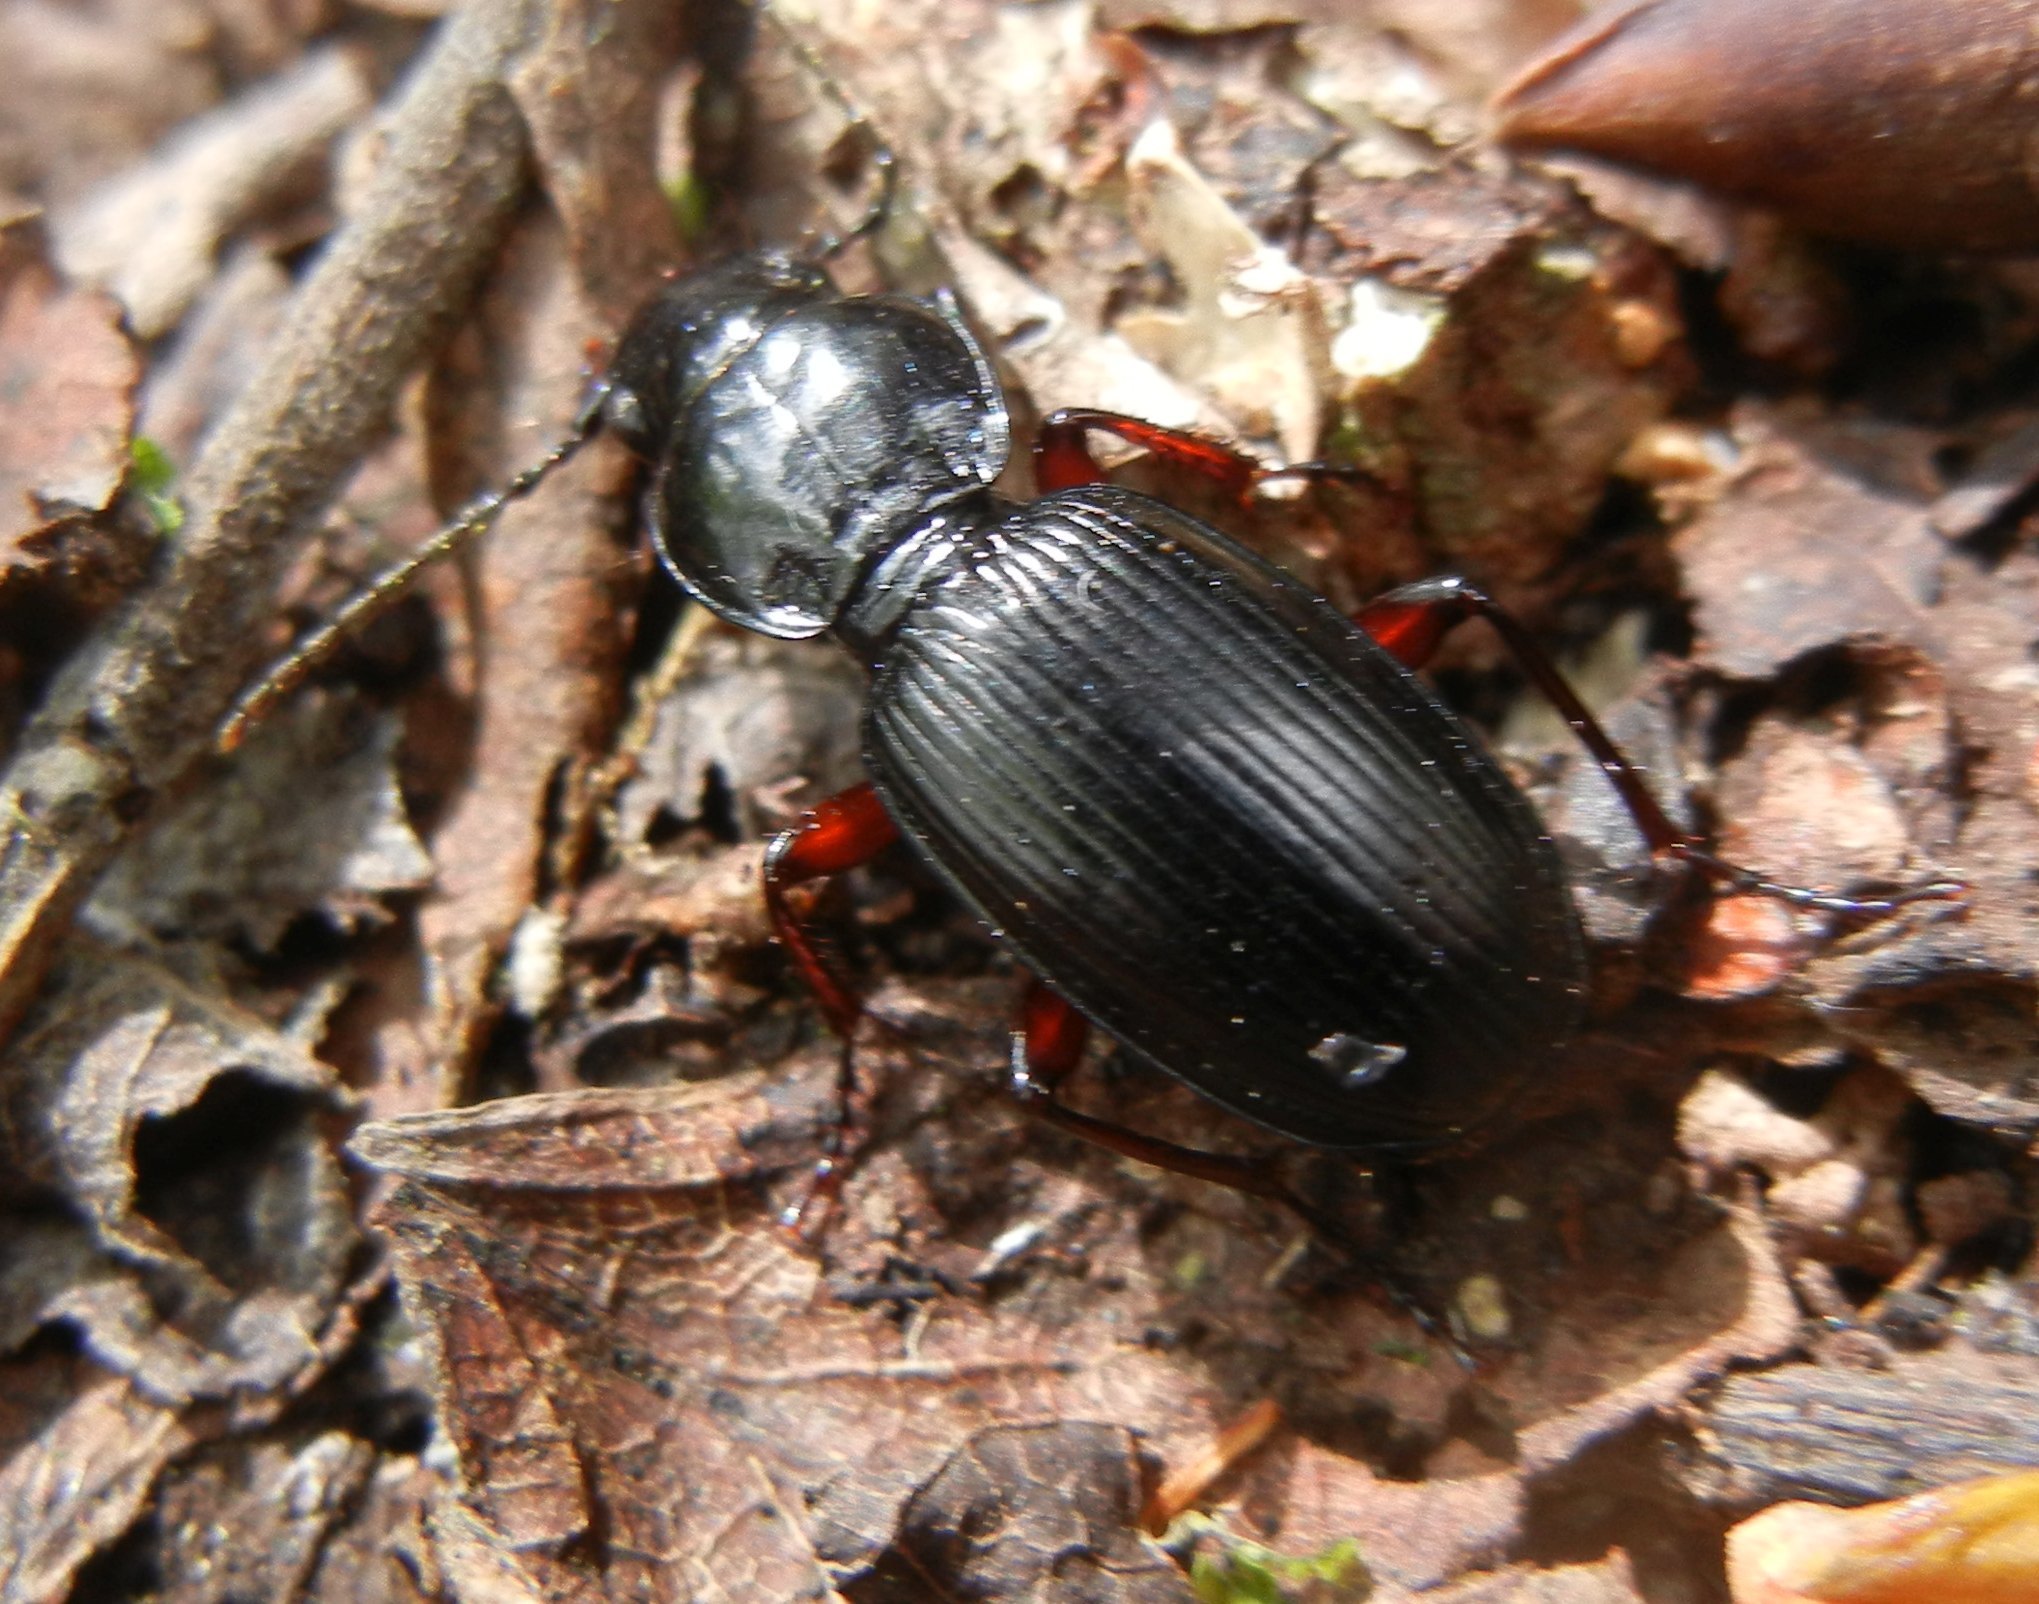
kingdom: Animalia
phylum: Arthropoda
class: Insecta
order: Coleoptera
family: Carabidae
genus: Pterostichus
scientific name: Pterostichus madidus
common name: Black clock
